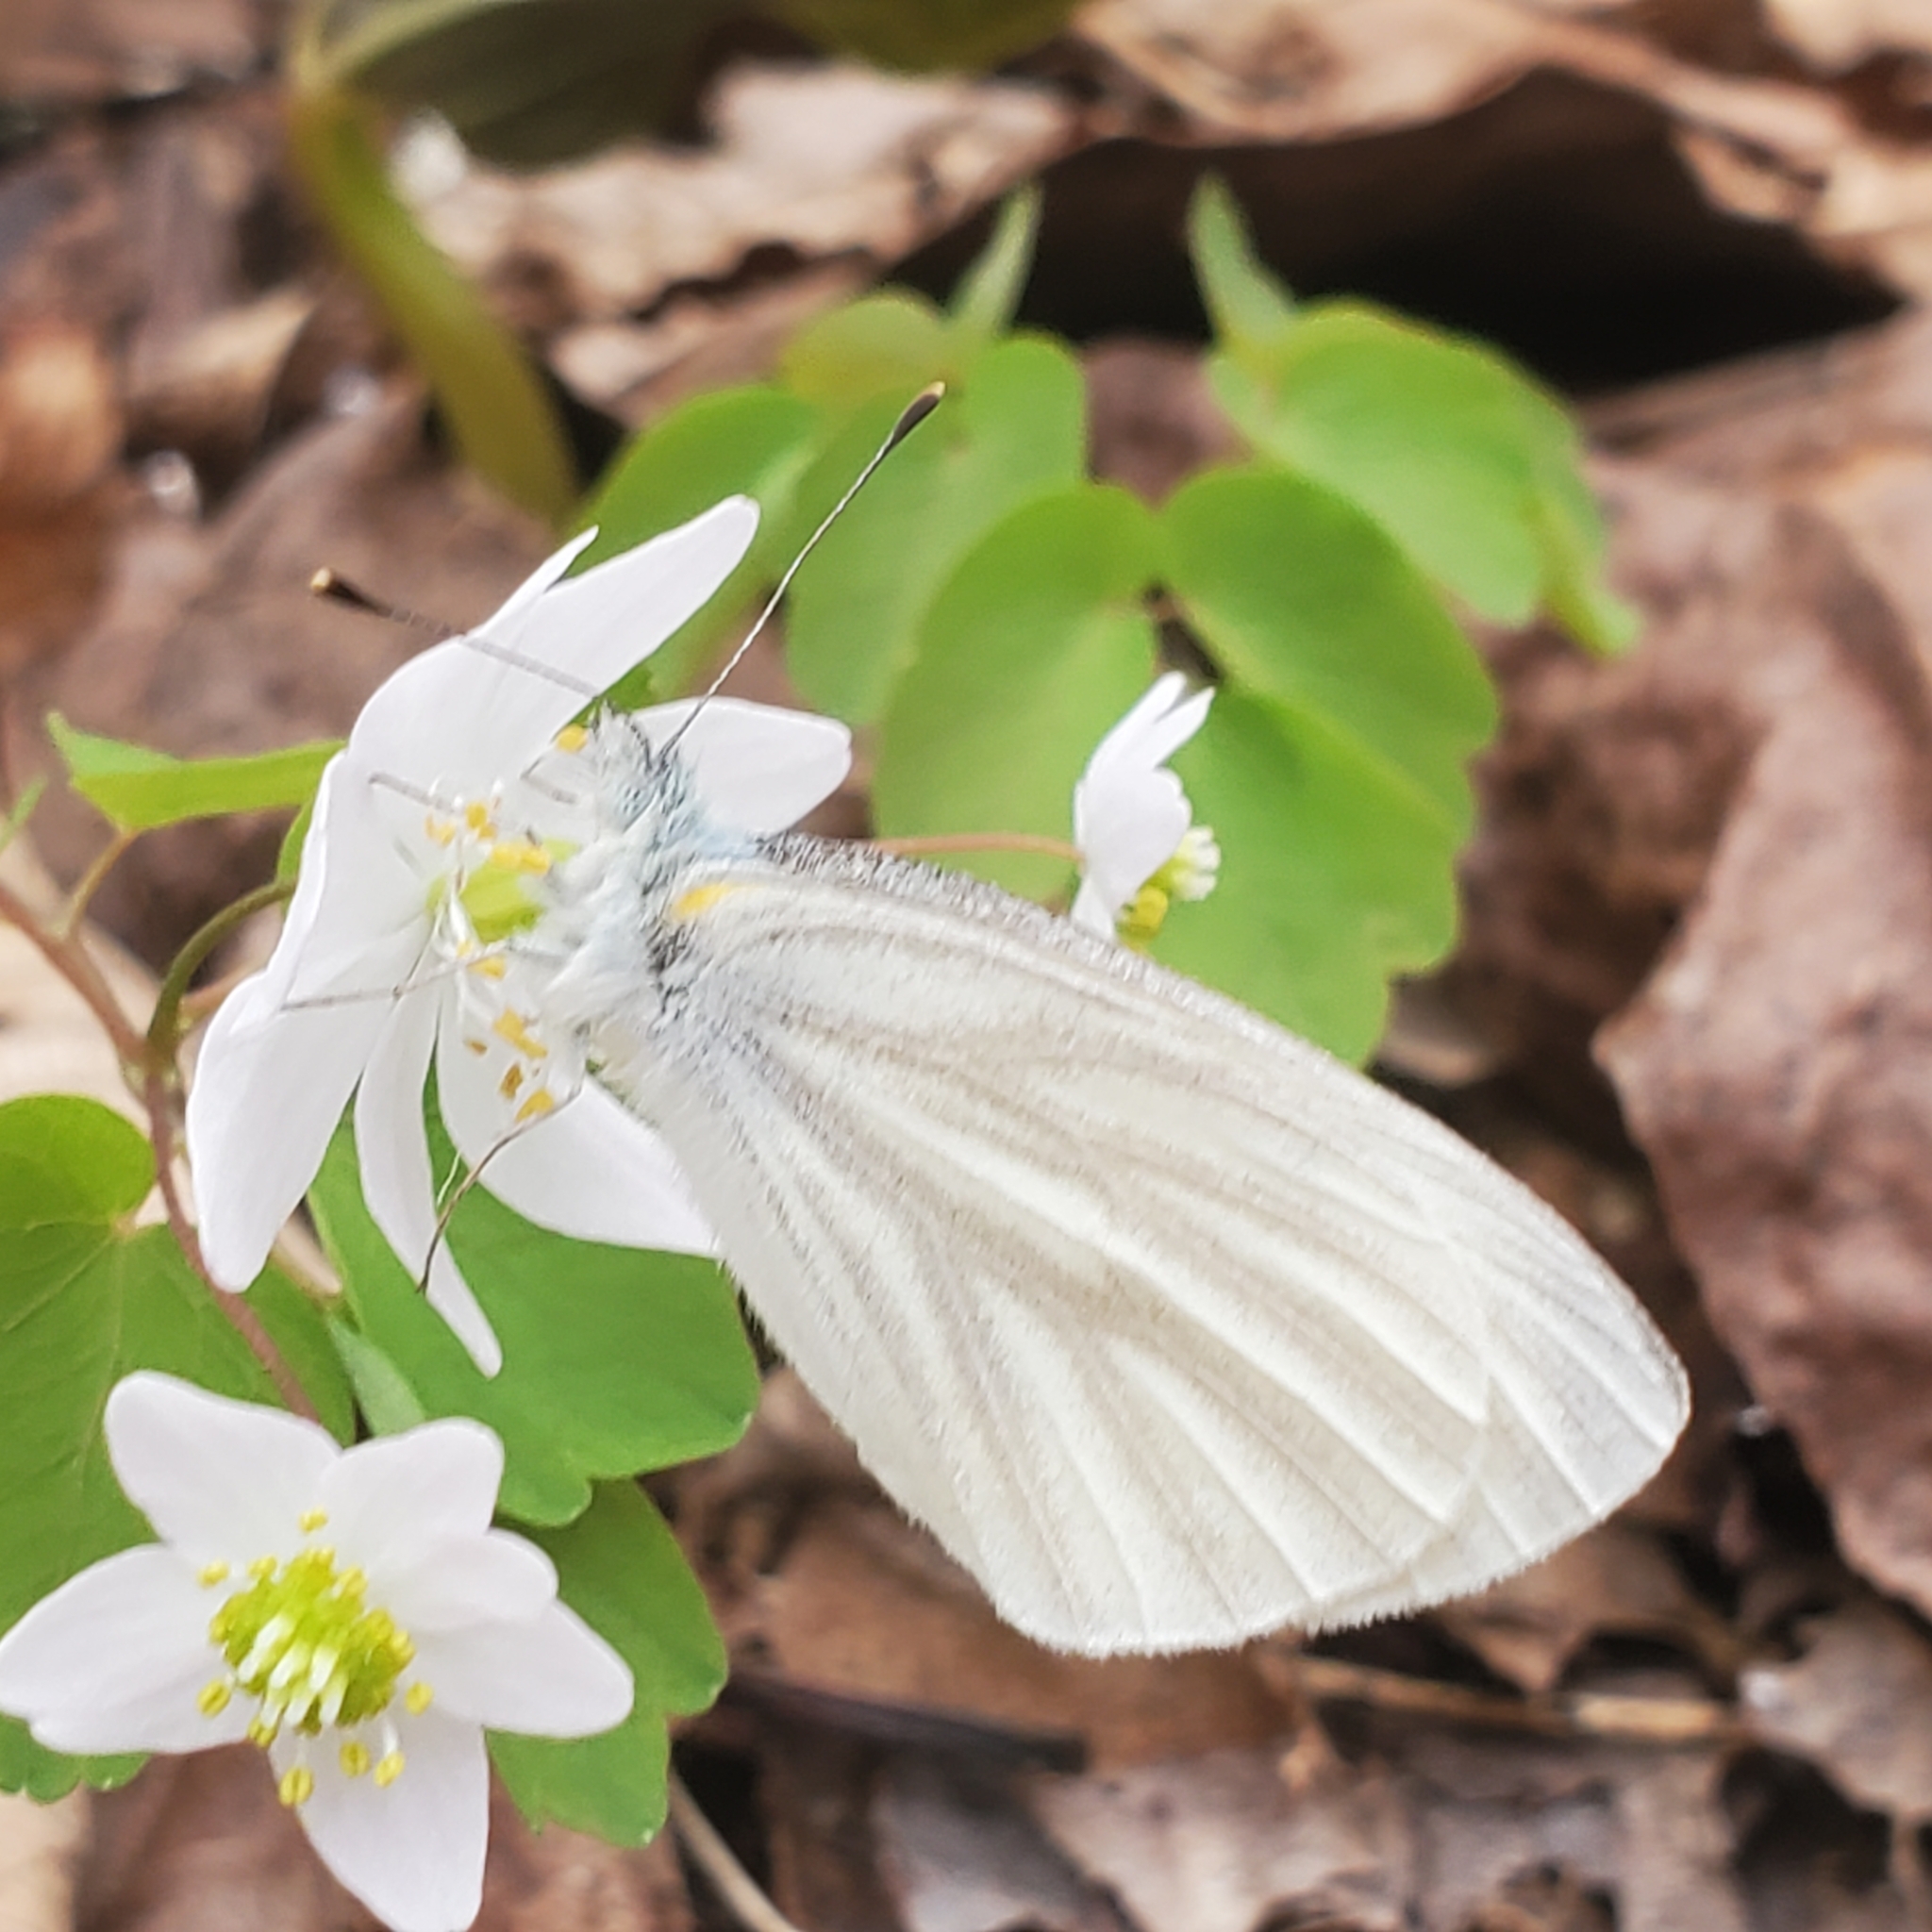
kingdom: Animalia
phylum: Arthropoda
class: Insecta
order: Lepidoptera
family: Pieridae
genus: Pieris
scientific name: Pieris virginiensis
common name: West virginia white
